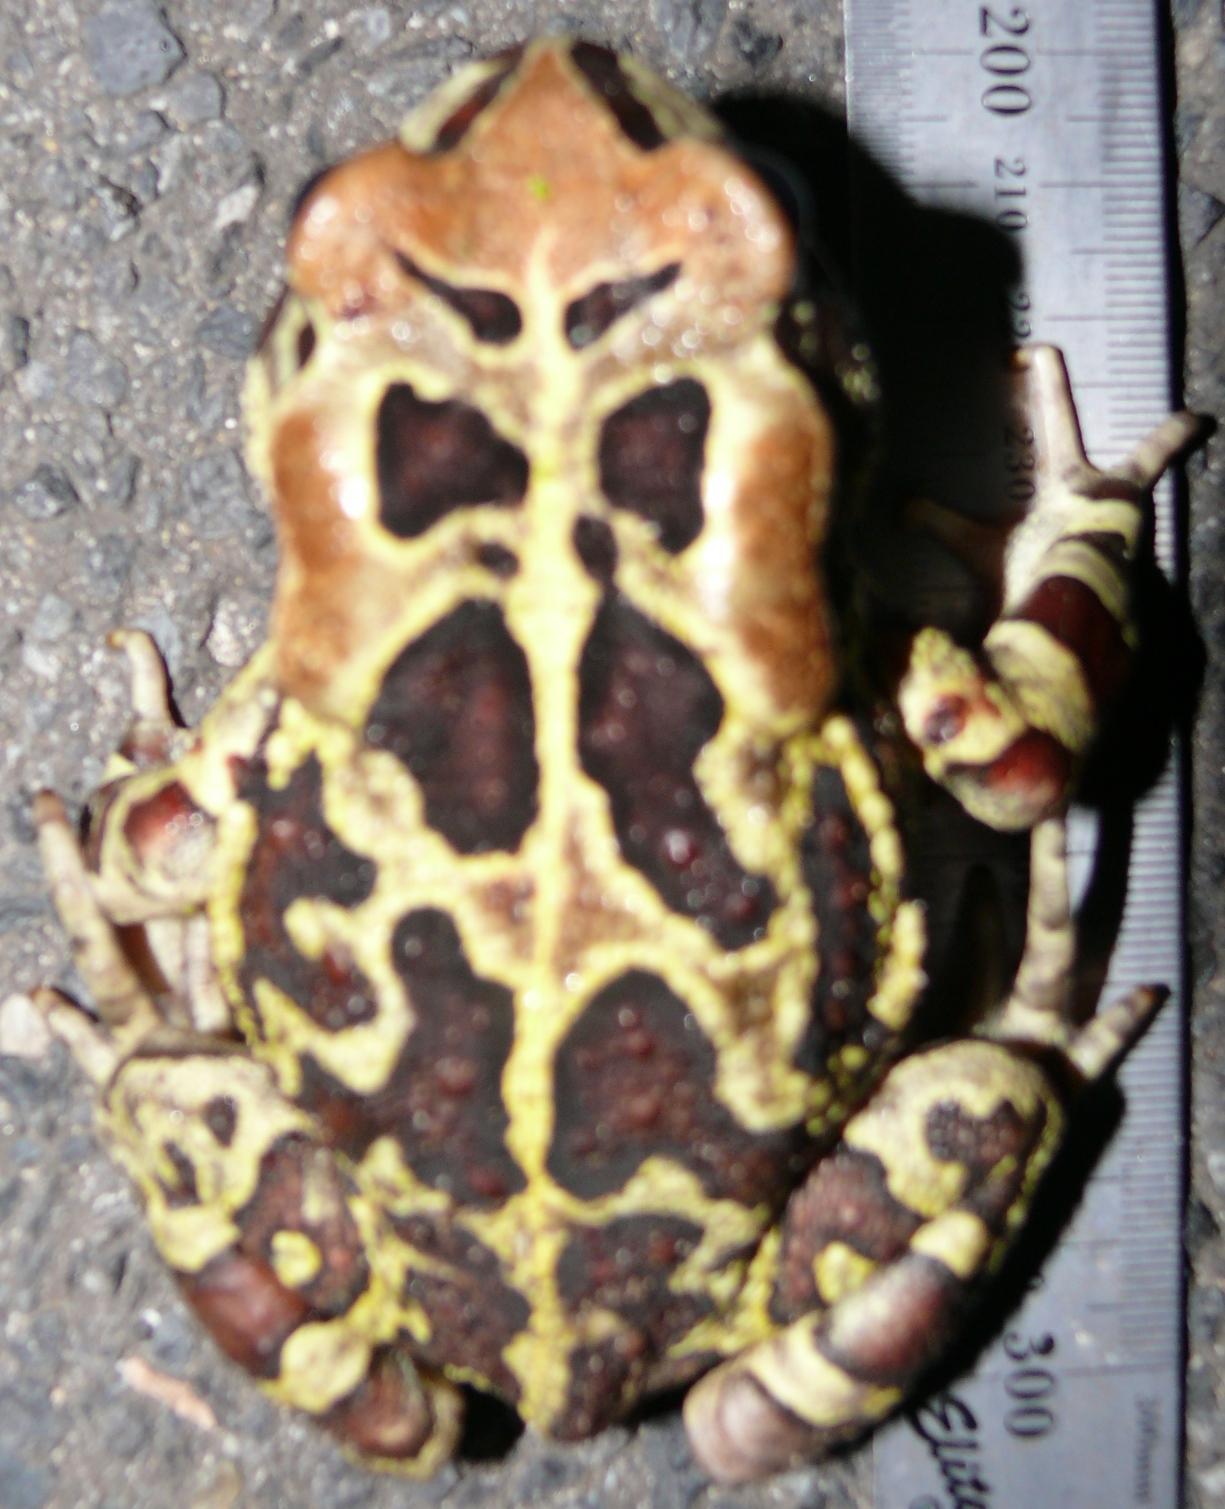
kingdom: Animalia
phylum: Chordata
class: Amphibia
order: Anura
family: Bufonidae
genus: Sclerophrys
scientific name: Sclerophrys pantherina
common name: Panther toad
